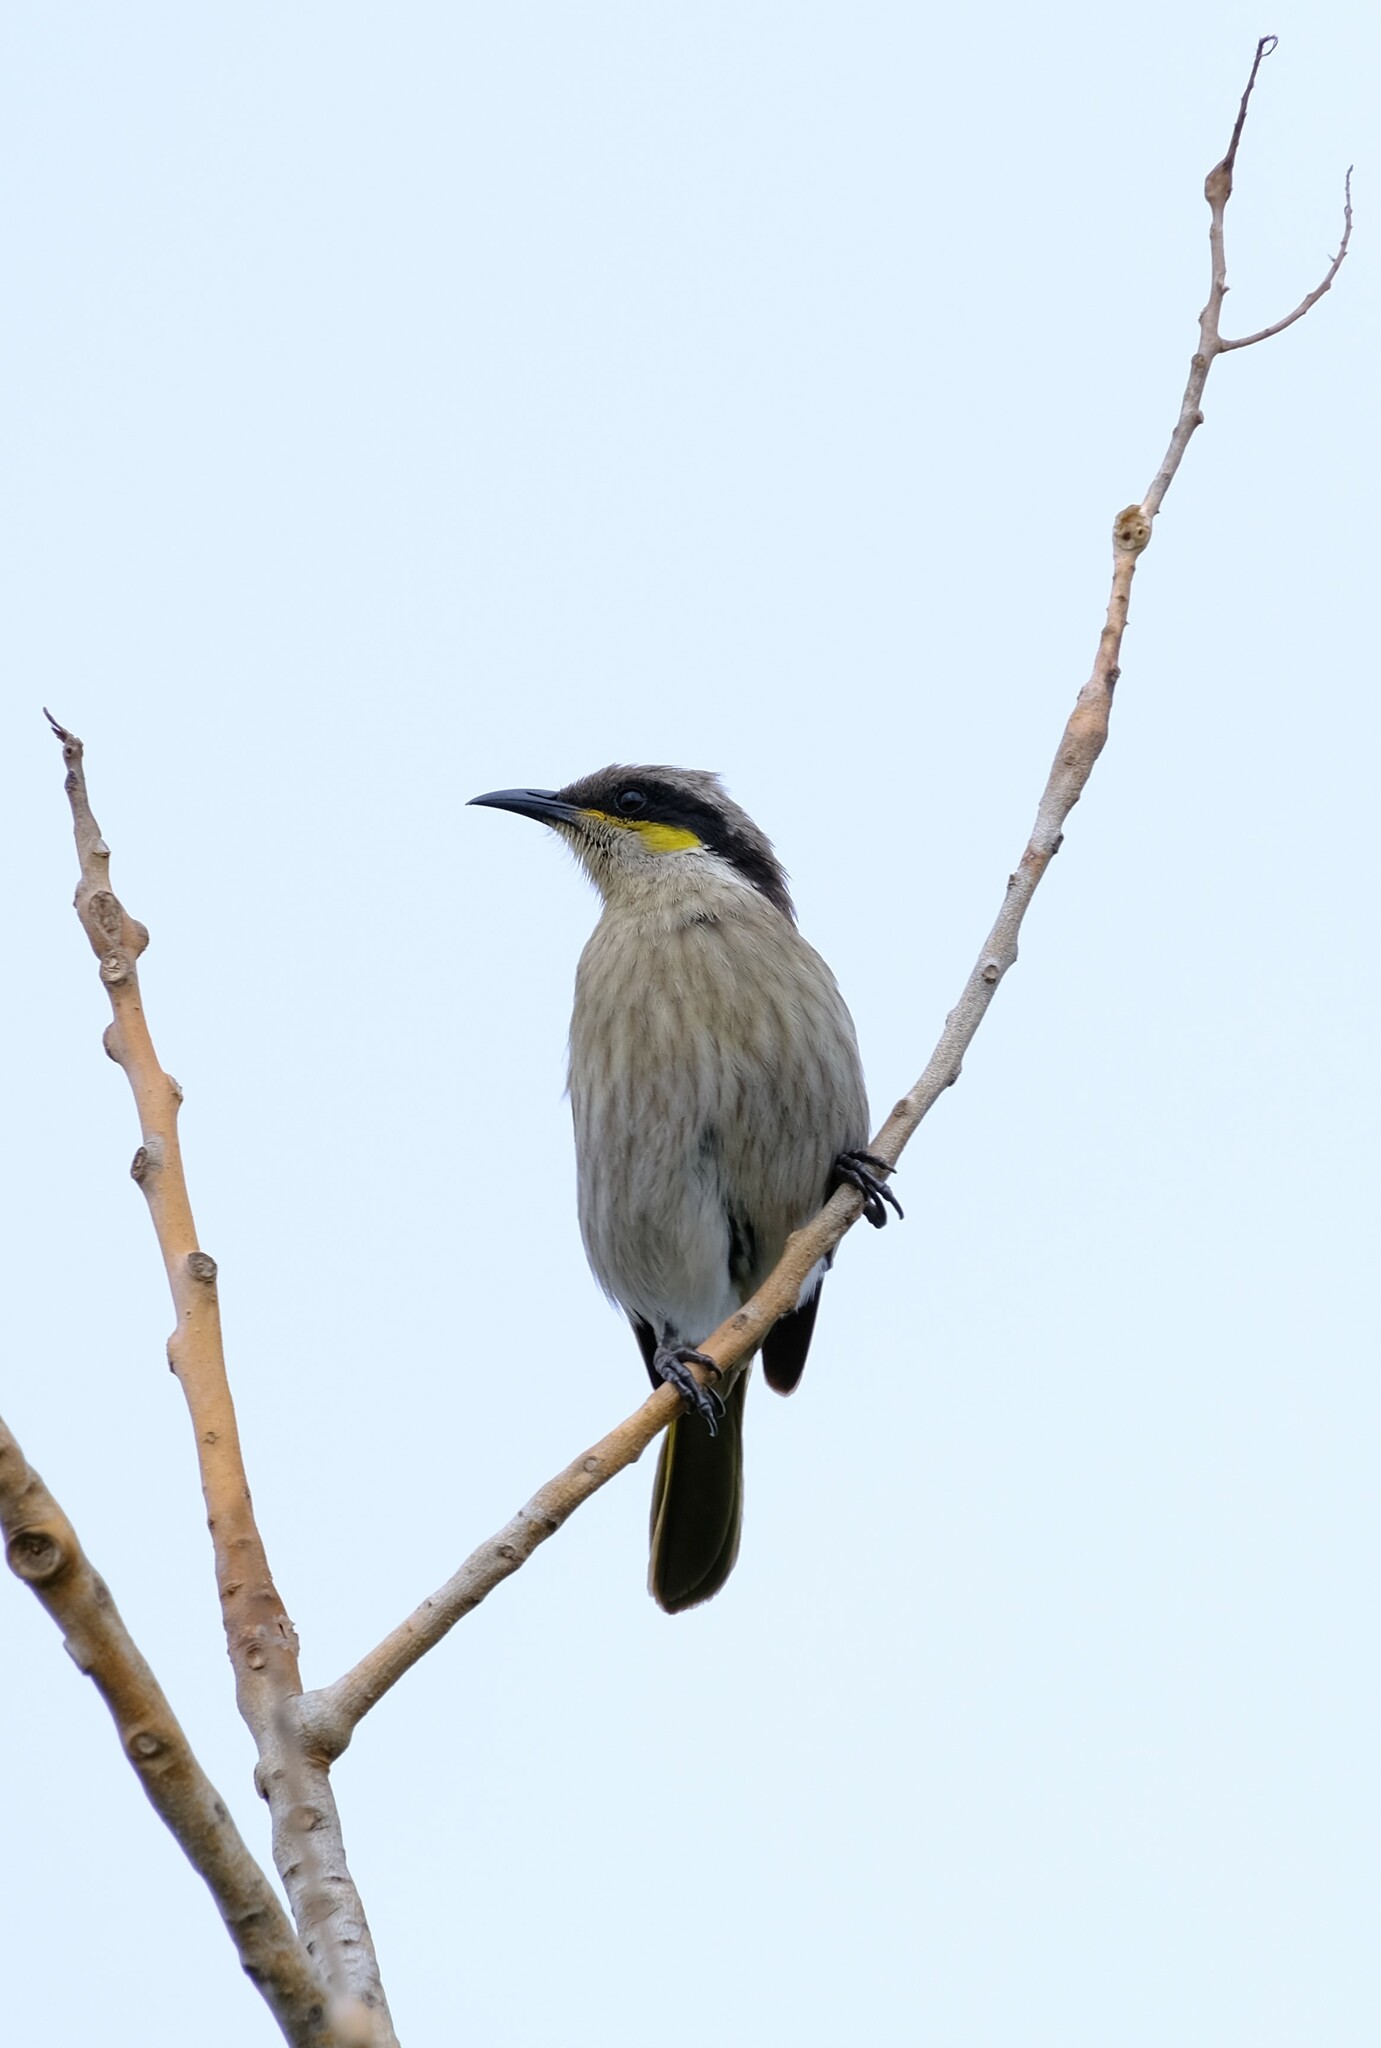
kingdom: Animalia
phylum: Chordata
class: Aves
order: Passeriformes
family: Meliphagidae
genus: Gavicalis
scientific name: Gavicalis virescens
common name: Singing honeyeater
